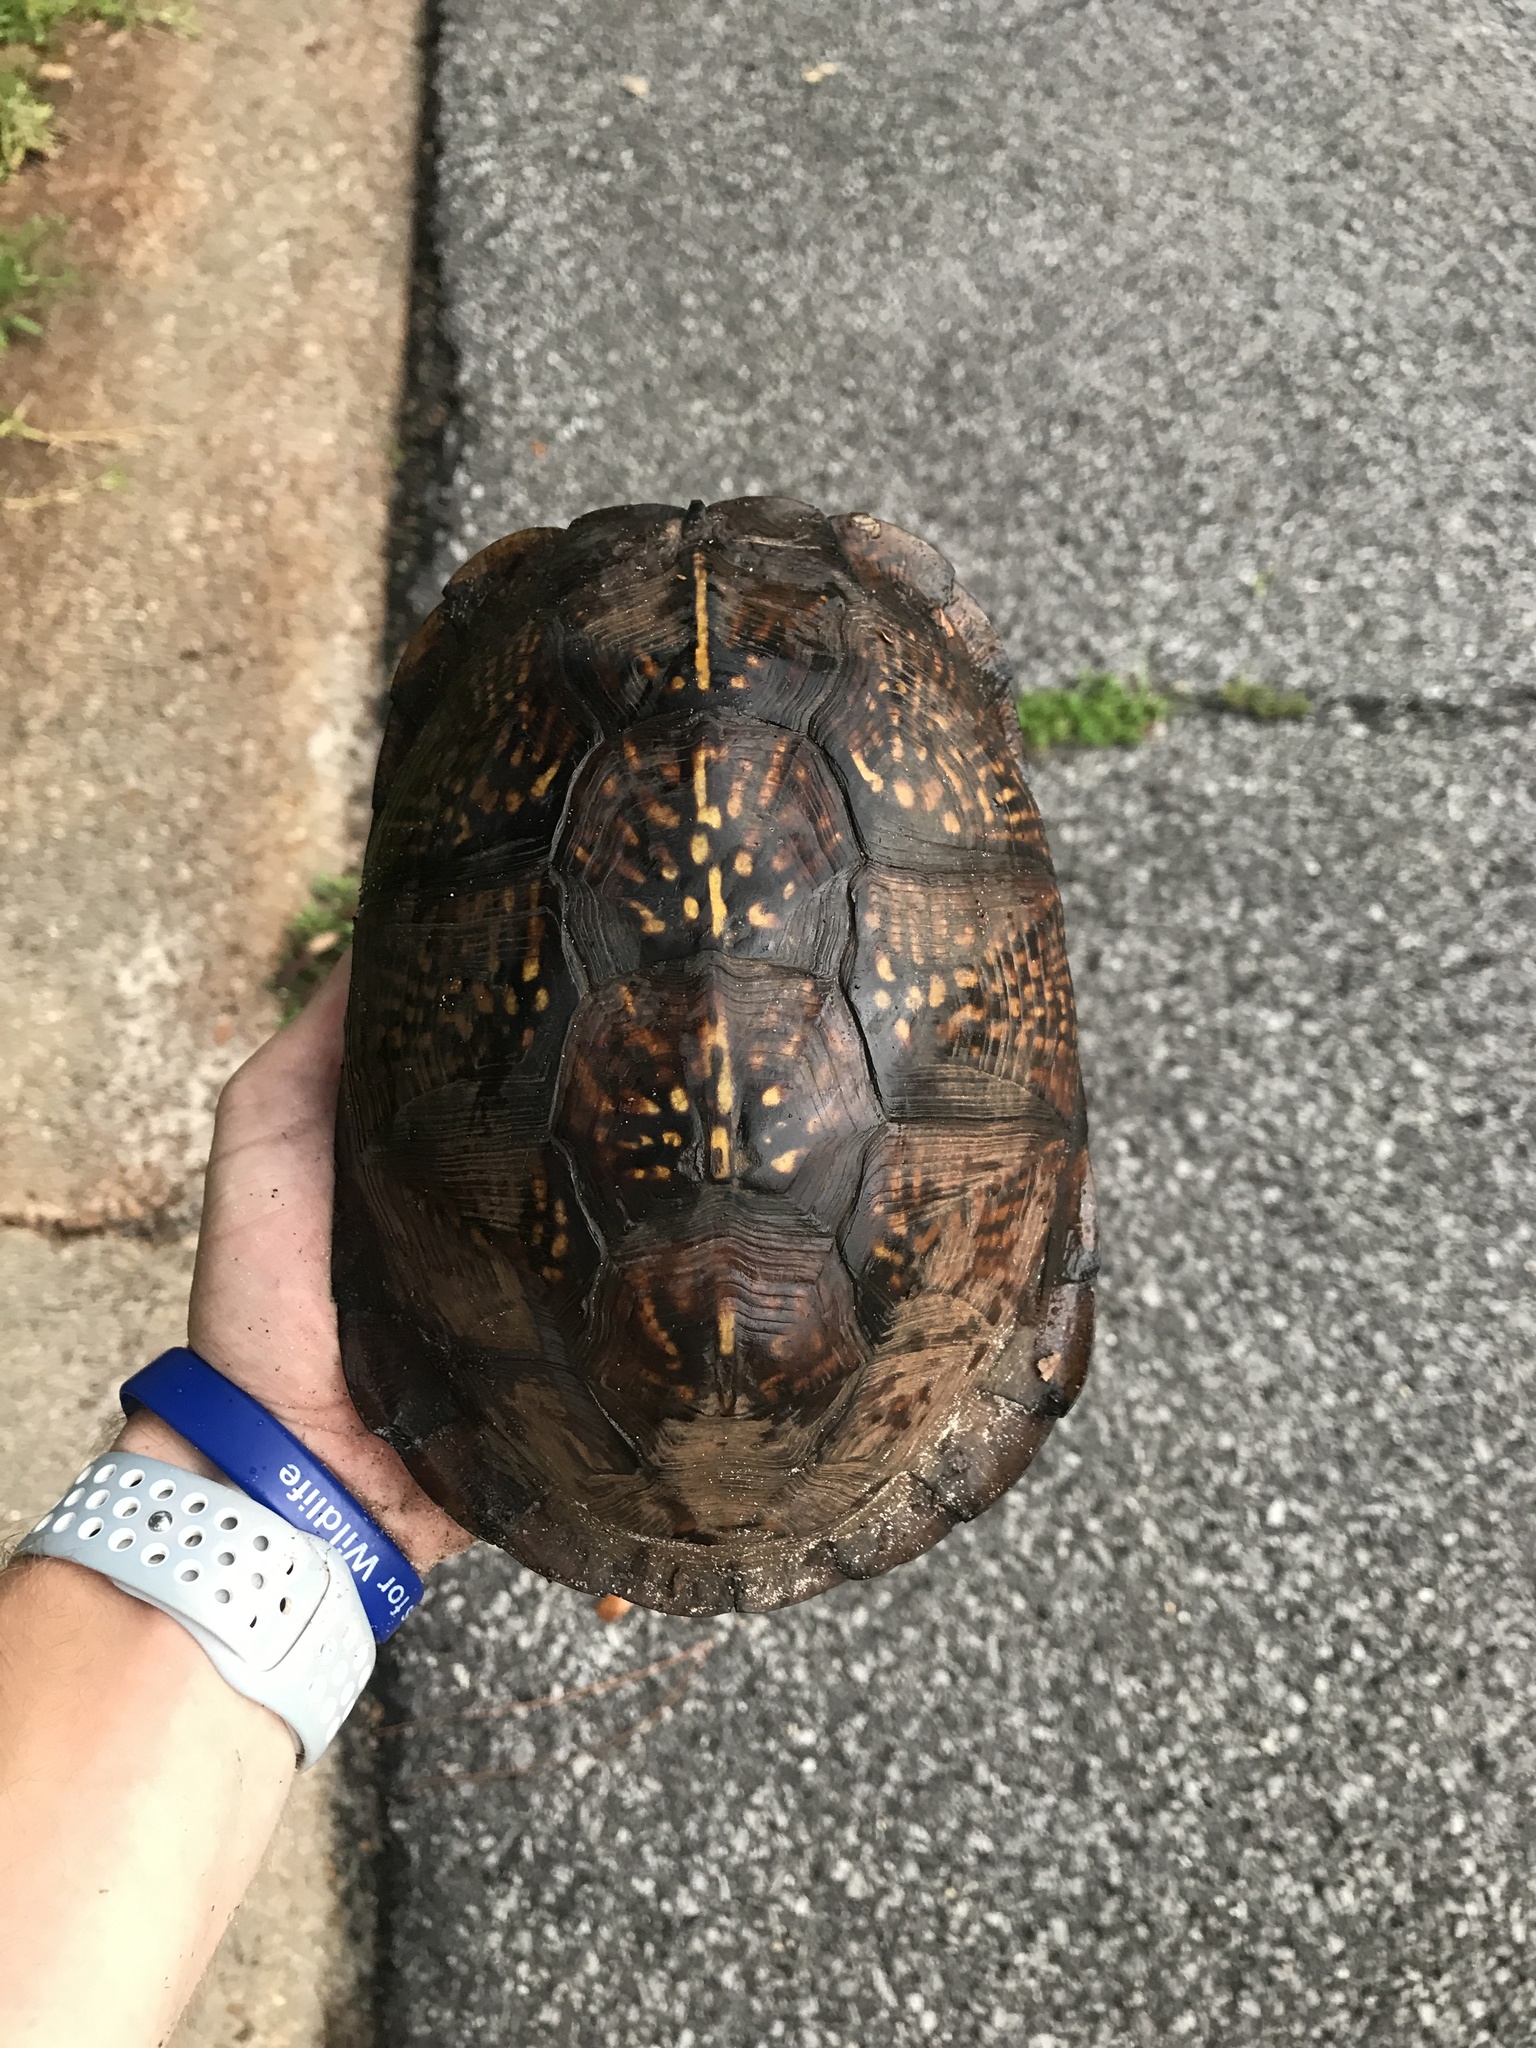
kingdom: Animalia
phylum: Chordata
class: Testudines
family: Emydidae
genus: Terrapene
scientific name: Terrapene carolina
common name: Common box turtle
